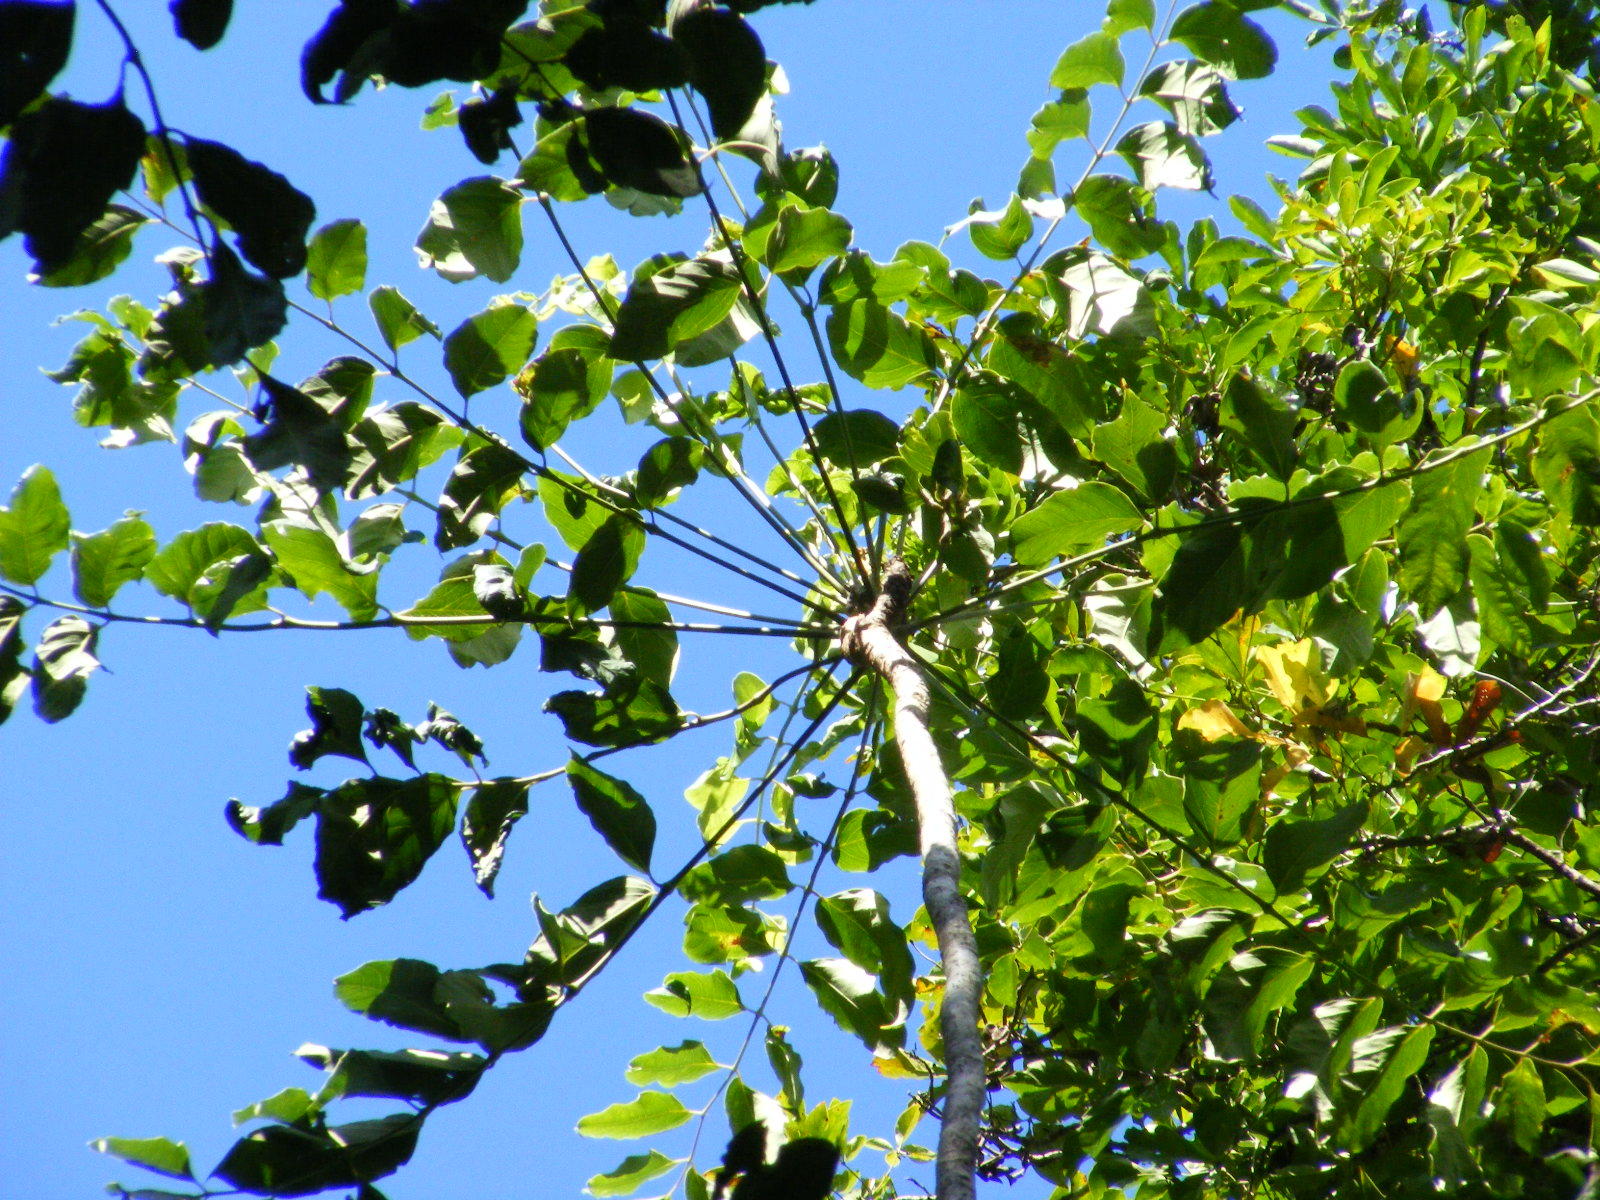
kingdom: Plantae
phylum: Tracheophyta
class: Magnoliopsida
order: Apiales
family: Araliaceae
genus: Polyscias
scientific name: Polyscias australiana
